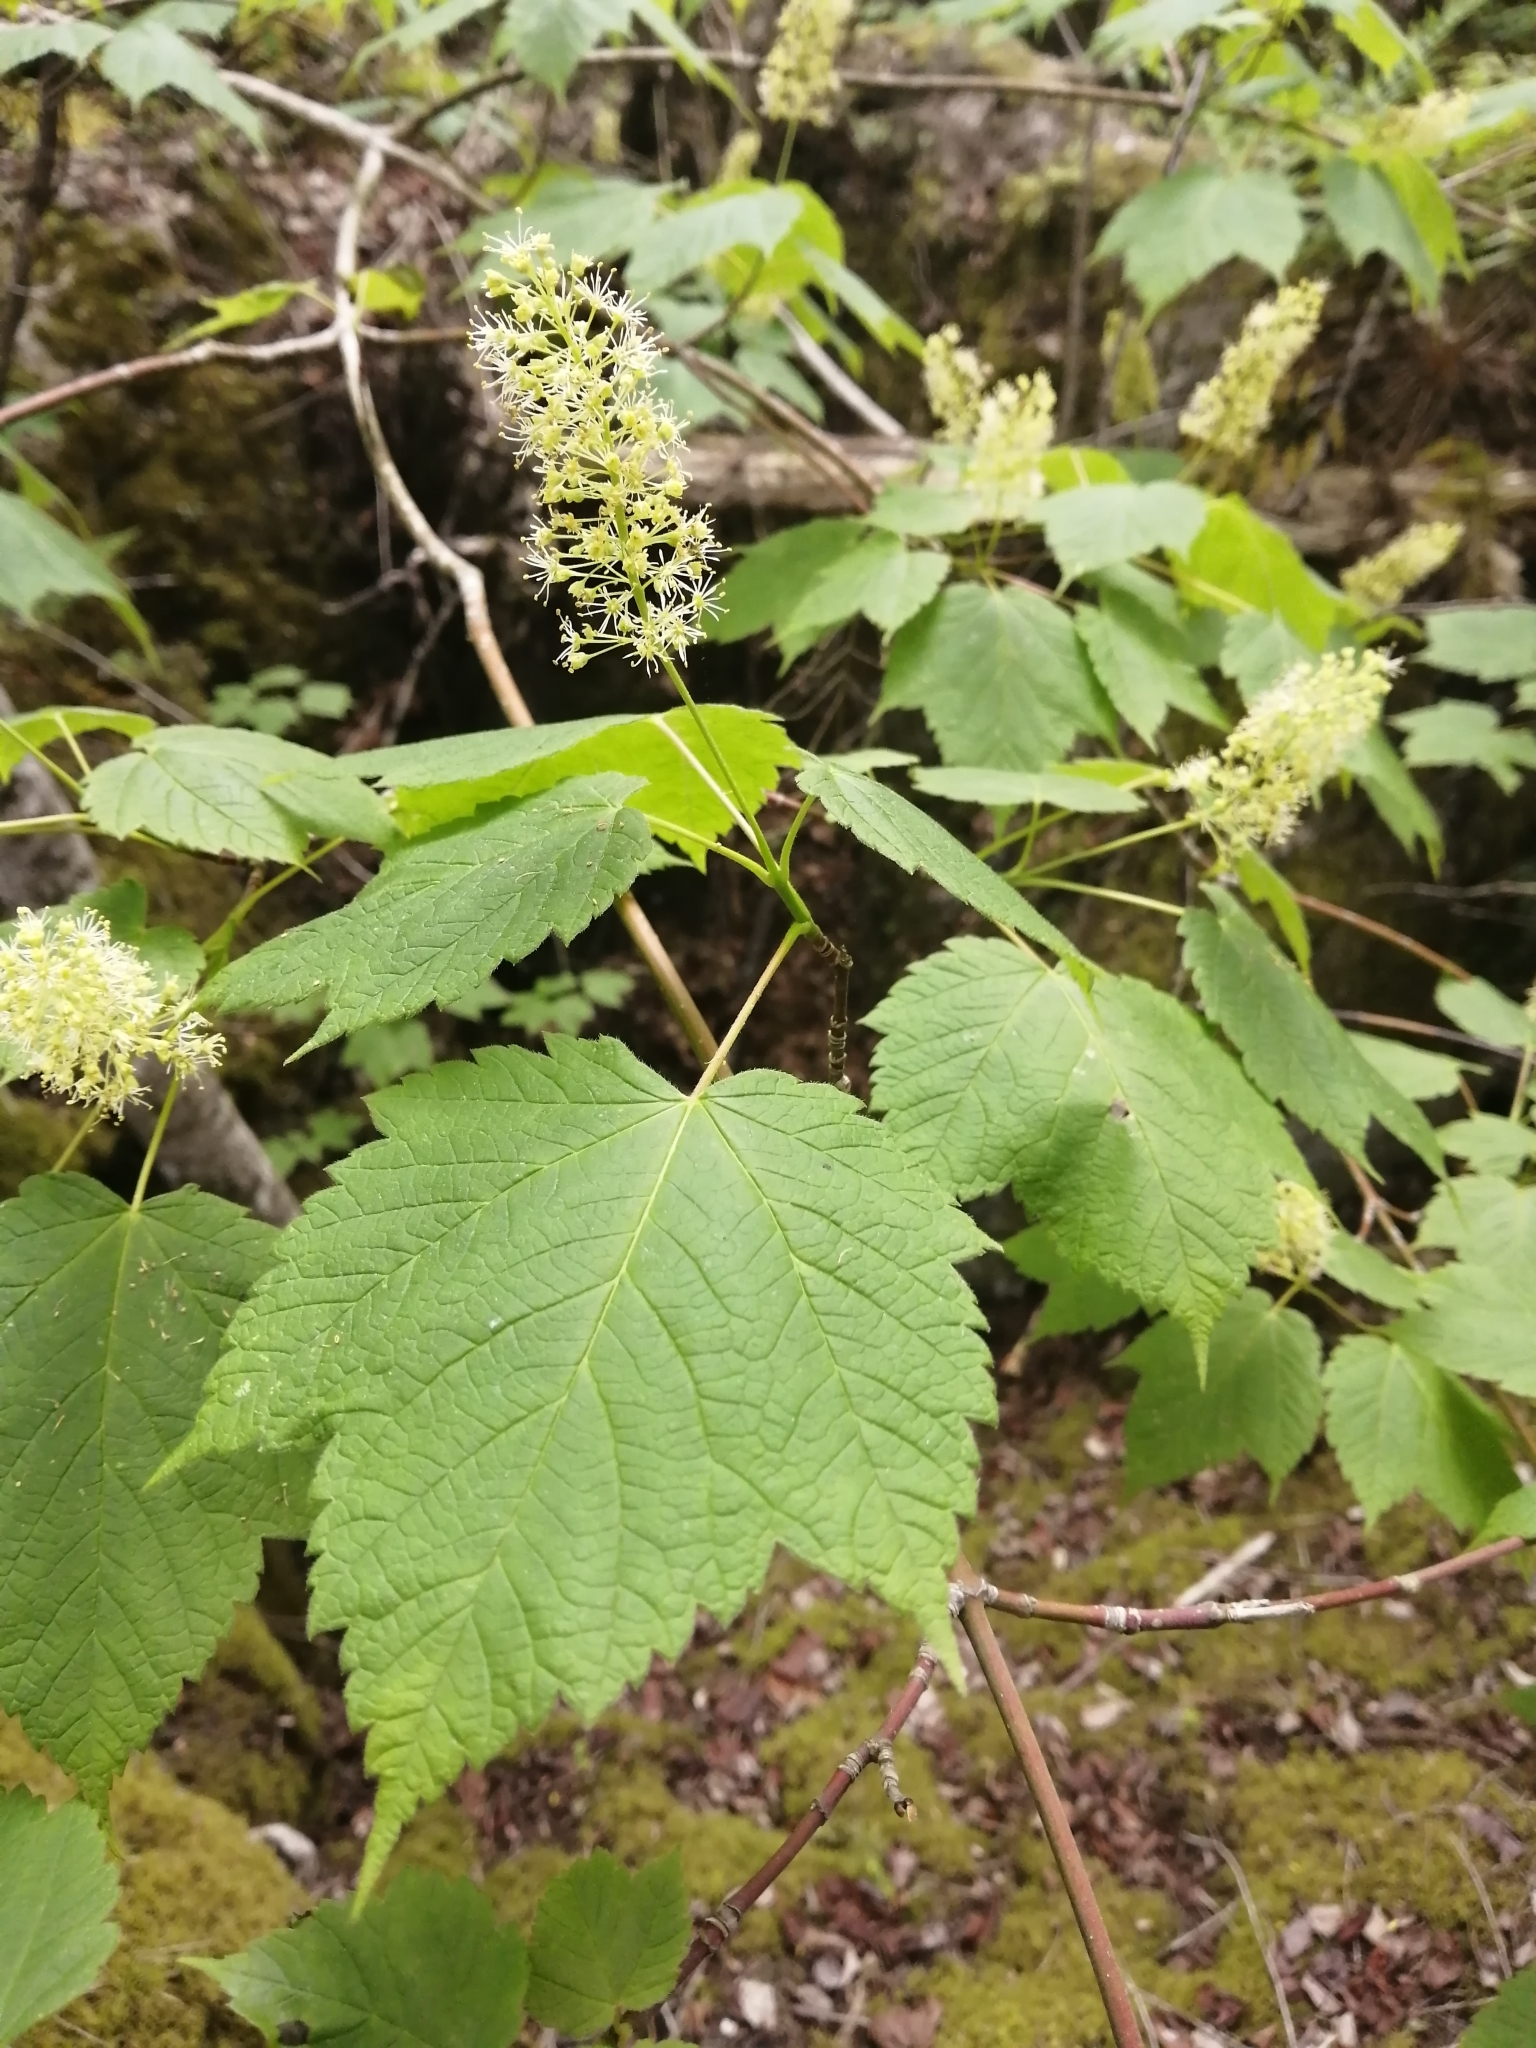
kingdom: Plantae
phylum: Tracheophyta
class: Magnoliopsida
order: Sapindales
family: Sapindaceae
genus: Acer
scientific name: Acer spicatum
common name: Mountain maple
